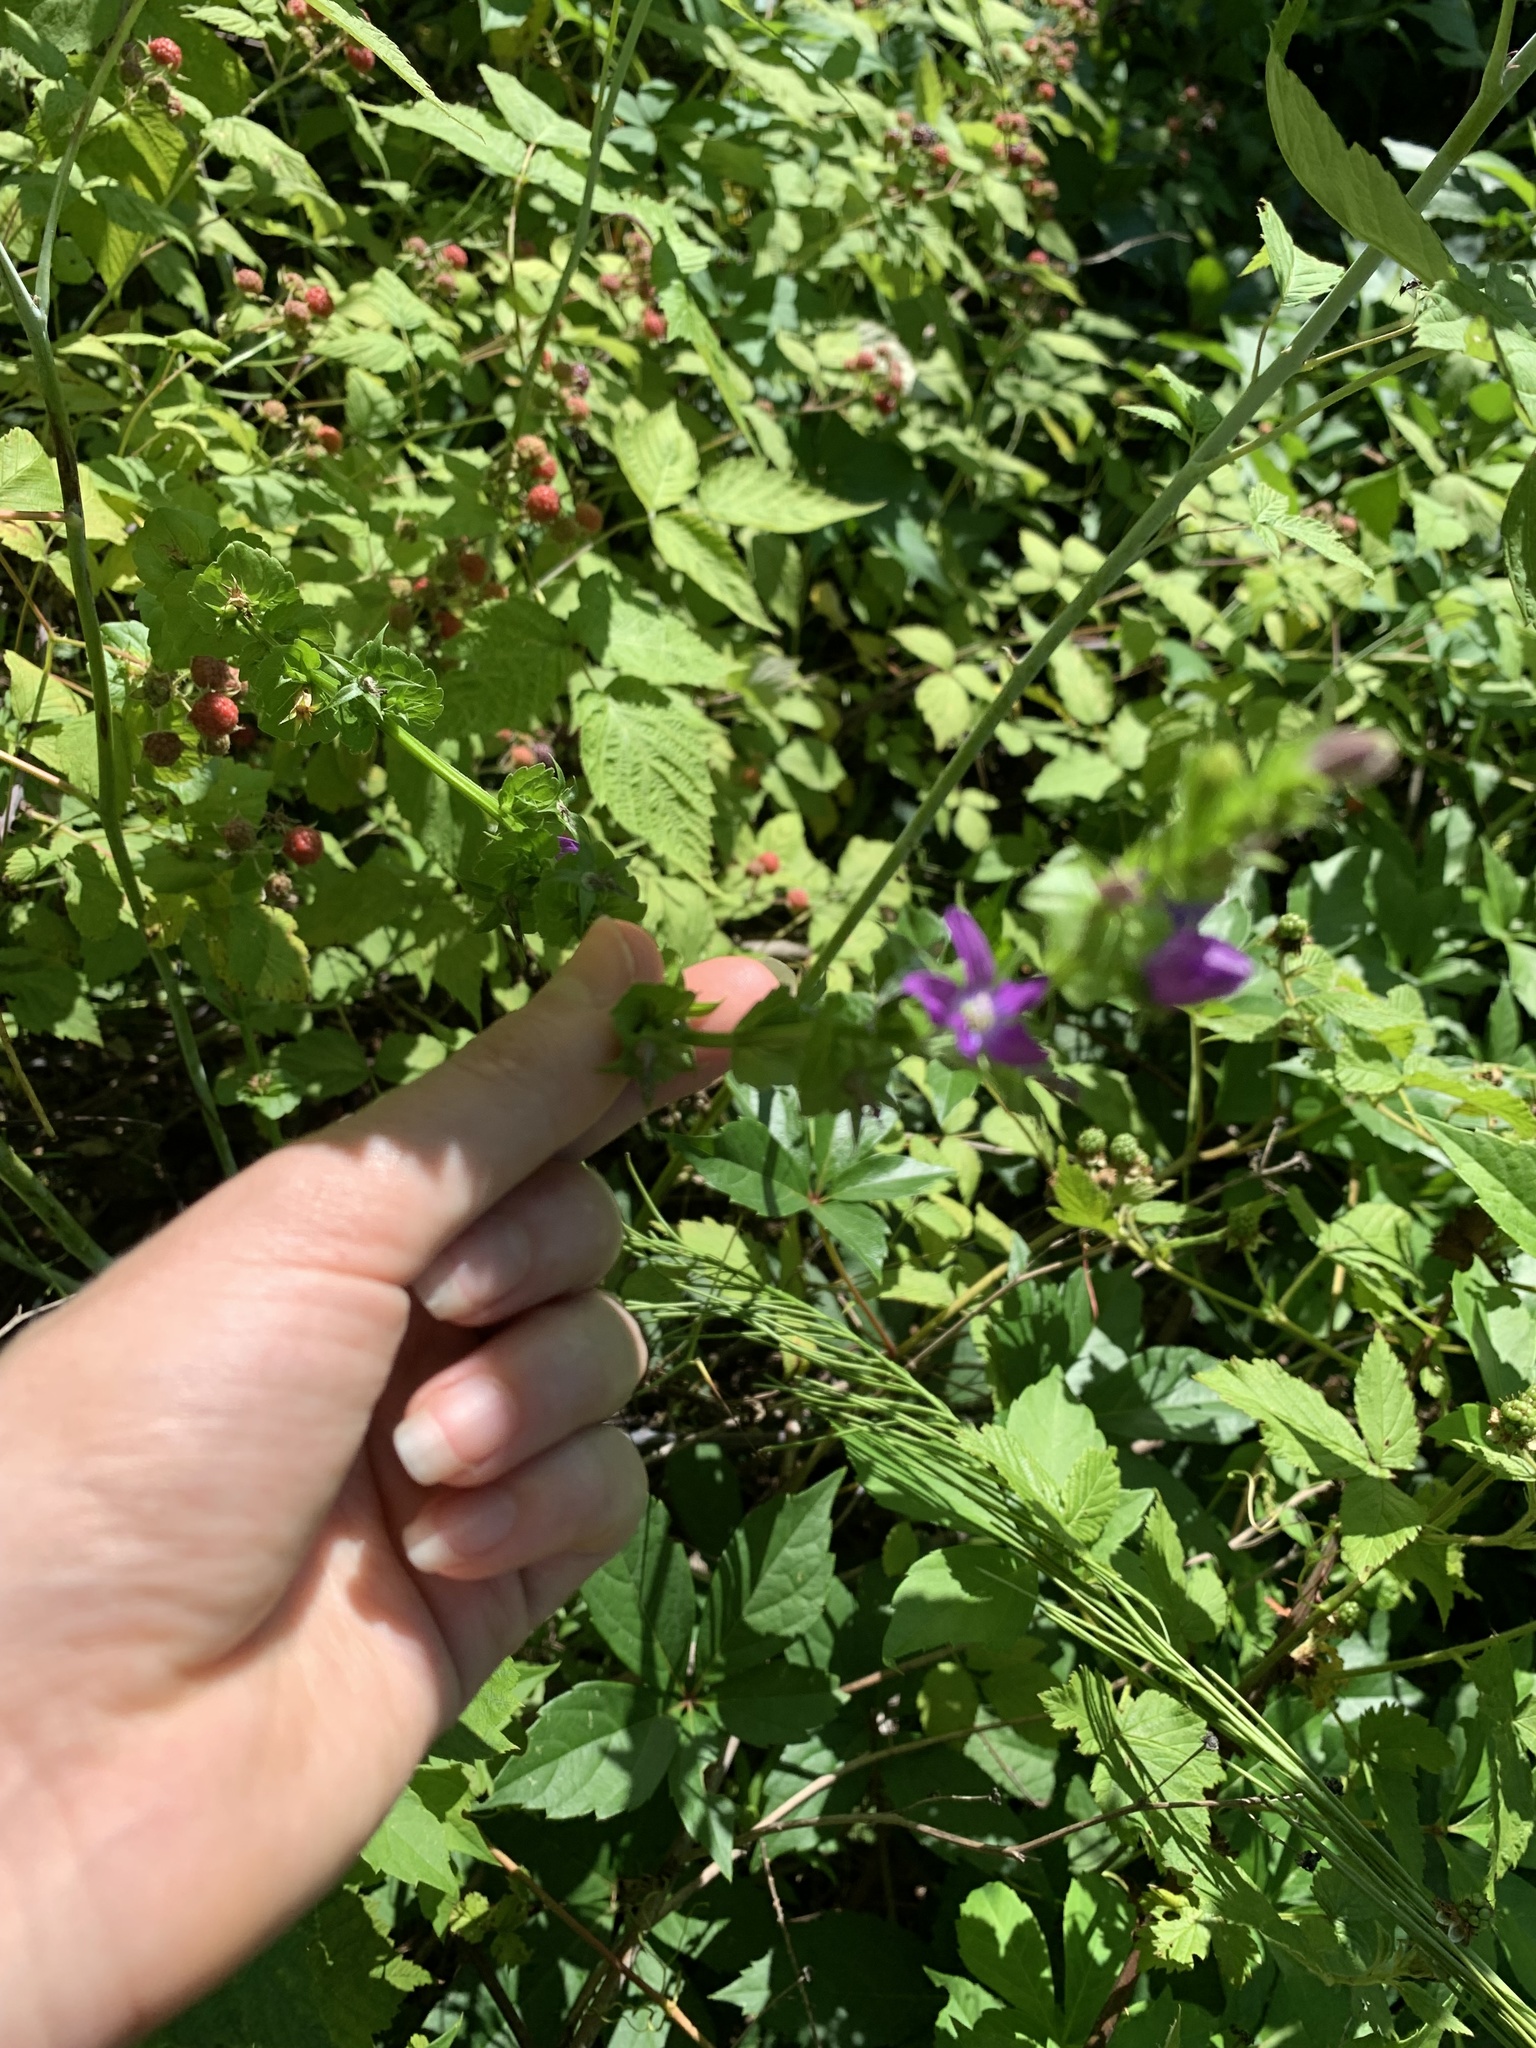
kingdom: Plantae
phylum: Tracheophyta
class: Magnoliopsida
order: Asterales
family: Campanulaceae
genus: Triodanis
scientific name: Triodanis perfoliata
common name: Clasping venus' looking-glass
